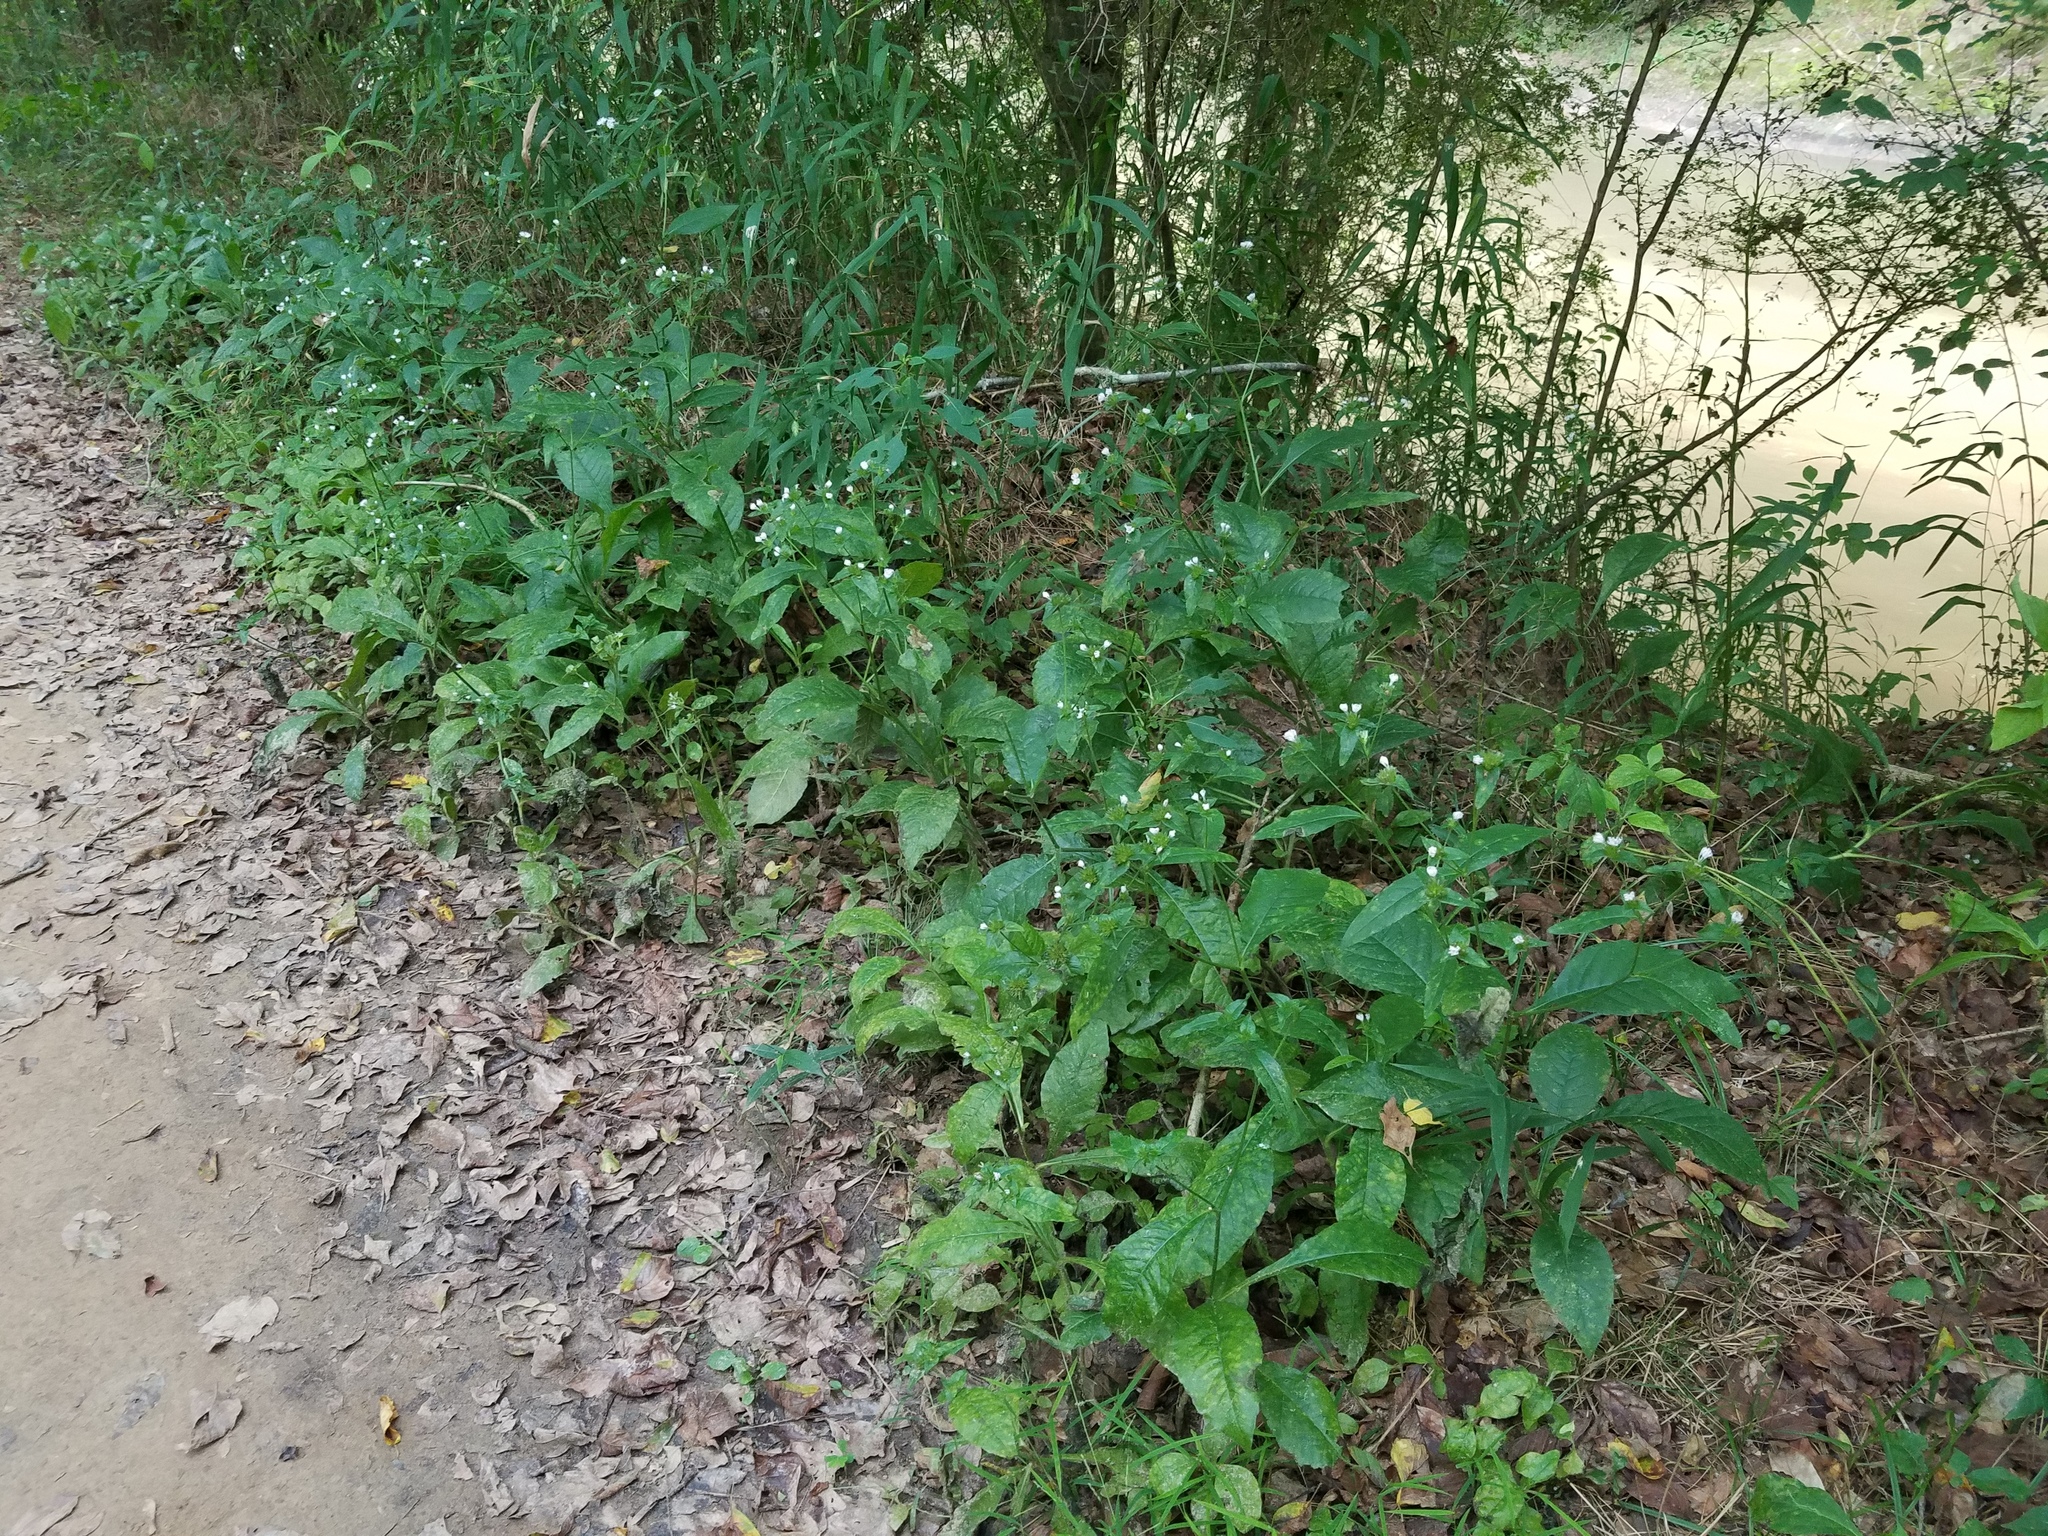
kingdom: Plantae
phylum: Tracheophyta
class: Magnoliopsida
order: Asterales
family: Asteraceae
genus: Elephantopus
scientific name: Elephantopus carolinianus
